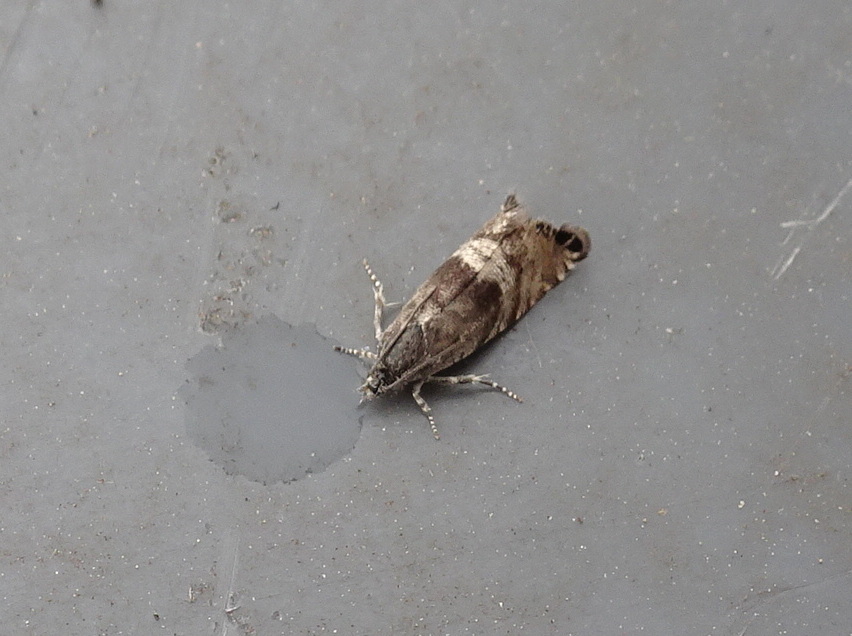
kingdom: Animalia
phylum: Arthropoda
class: Insecta
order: Lepidoptera
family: Tortricidae
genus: Sereda
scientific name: Sereda tautana
